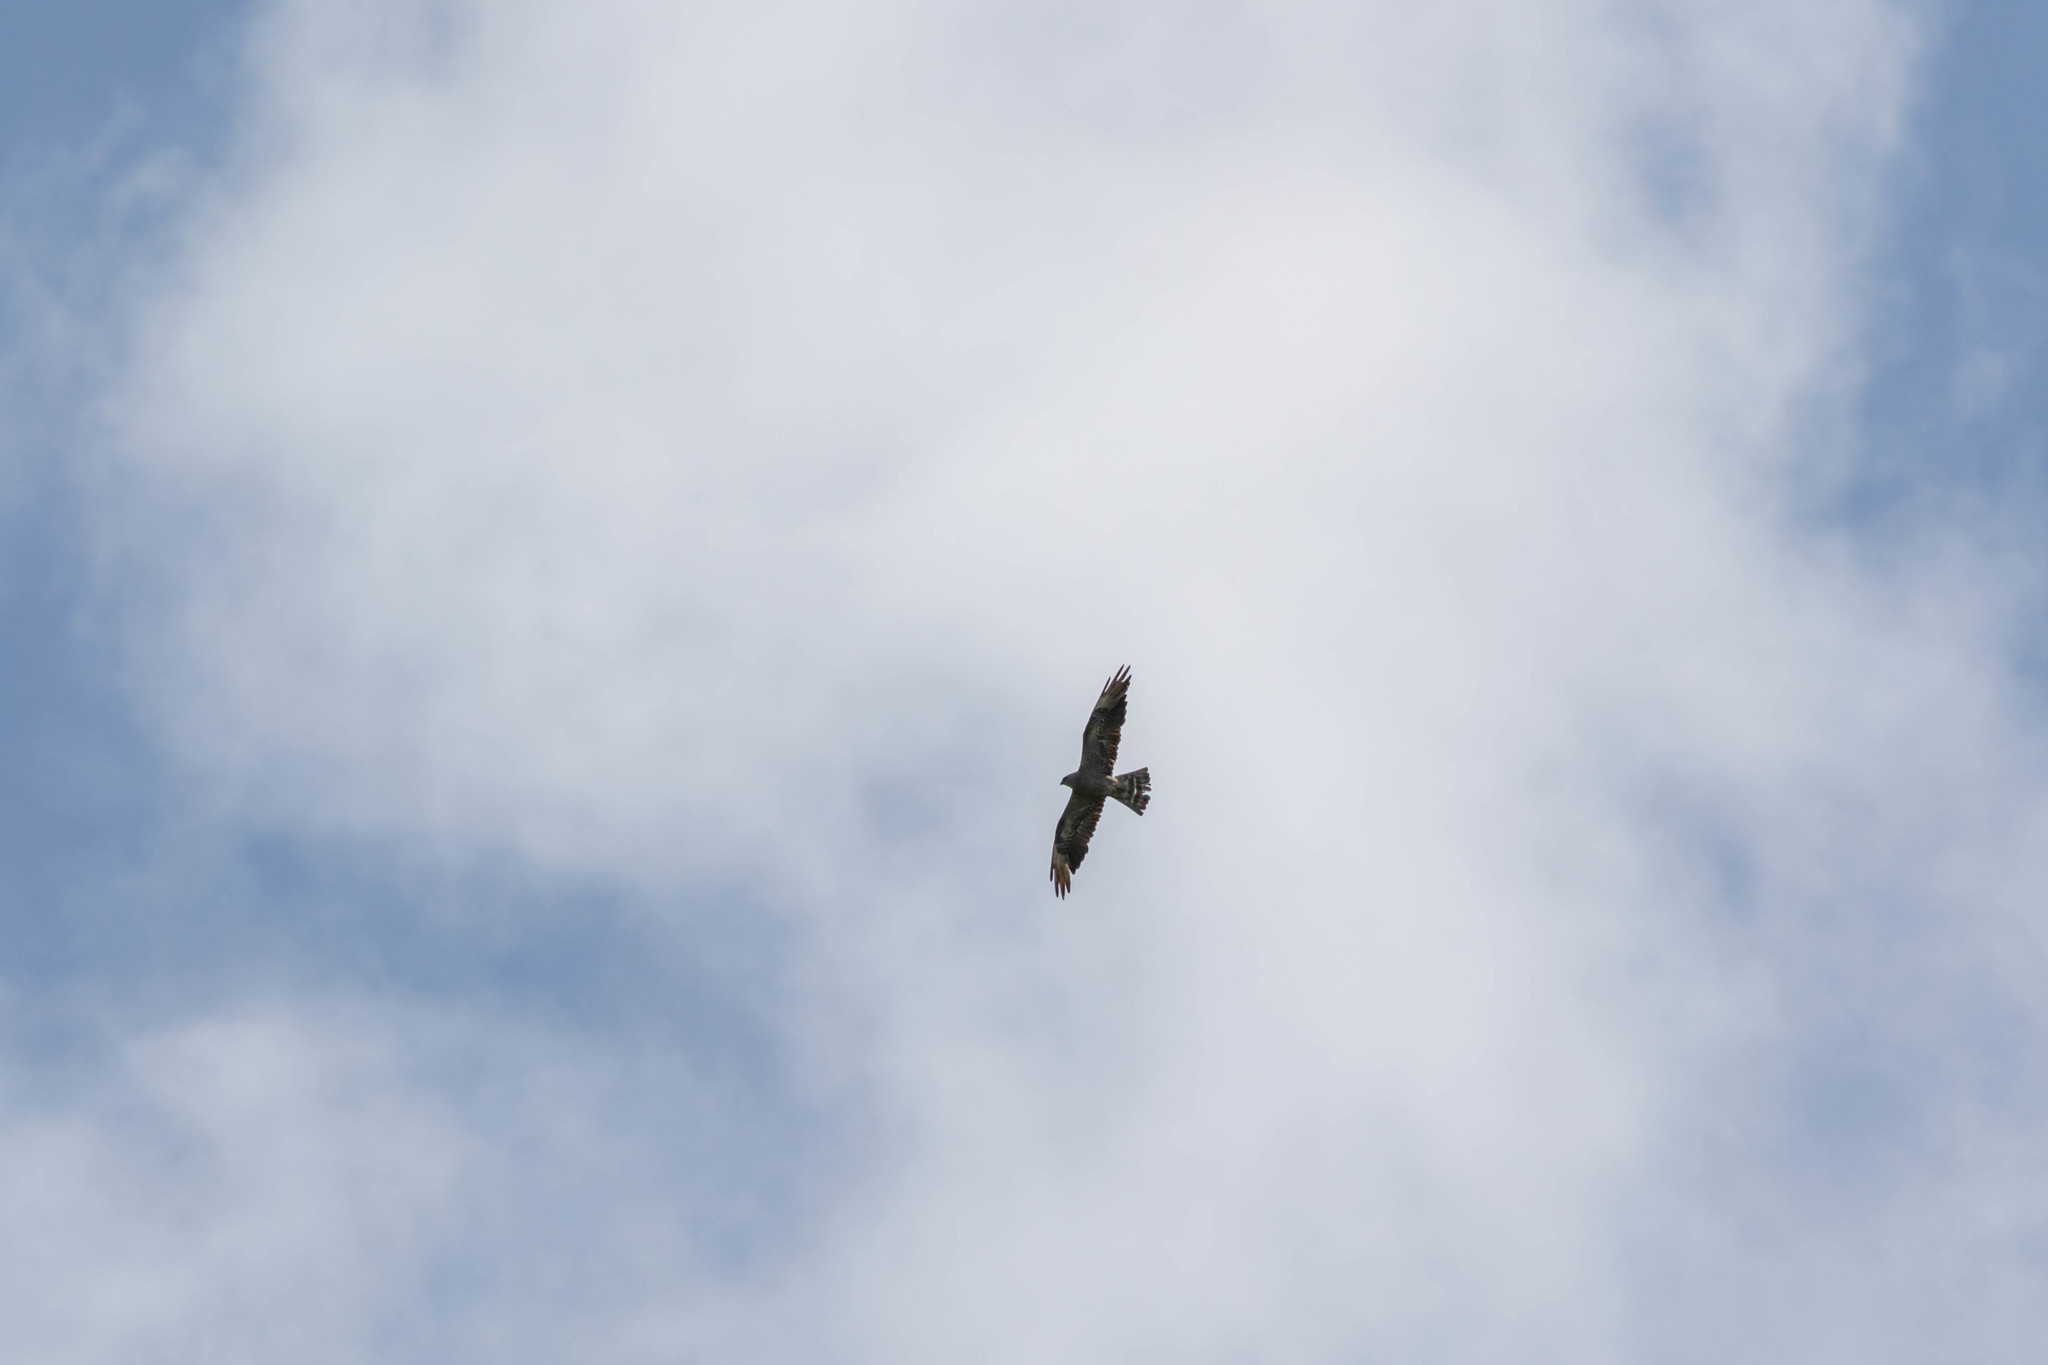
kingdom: Animalia
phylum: Chordata
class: Aves
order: Accipitriformes
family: Accipitridae
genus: Ictinia
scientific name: Ictinia mississippiensis
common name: Mississippi kite
